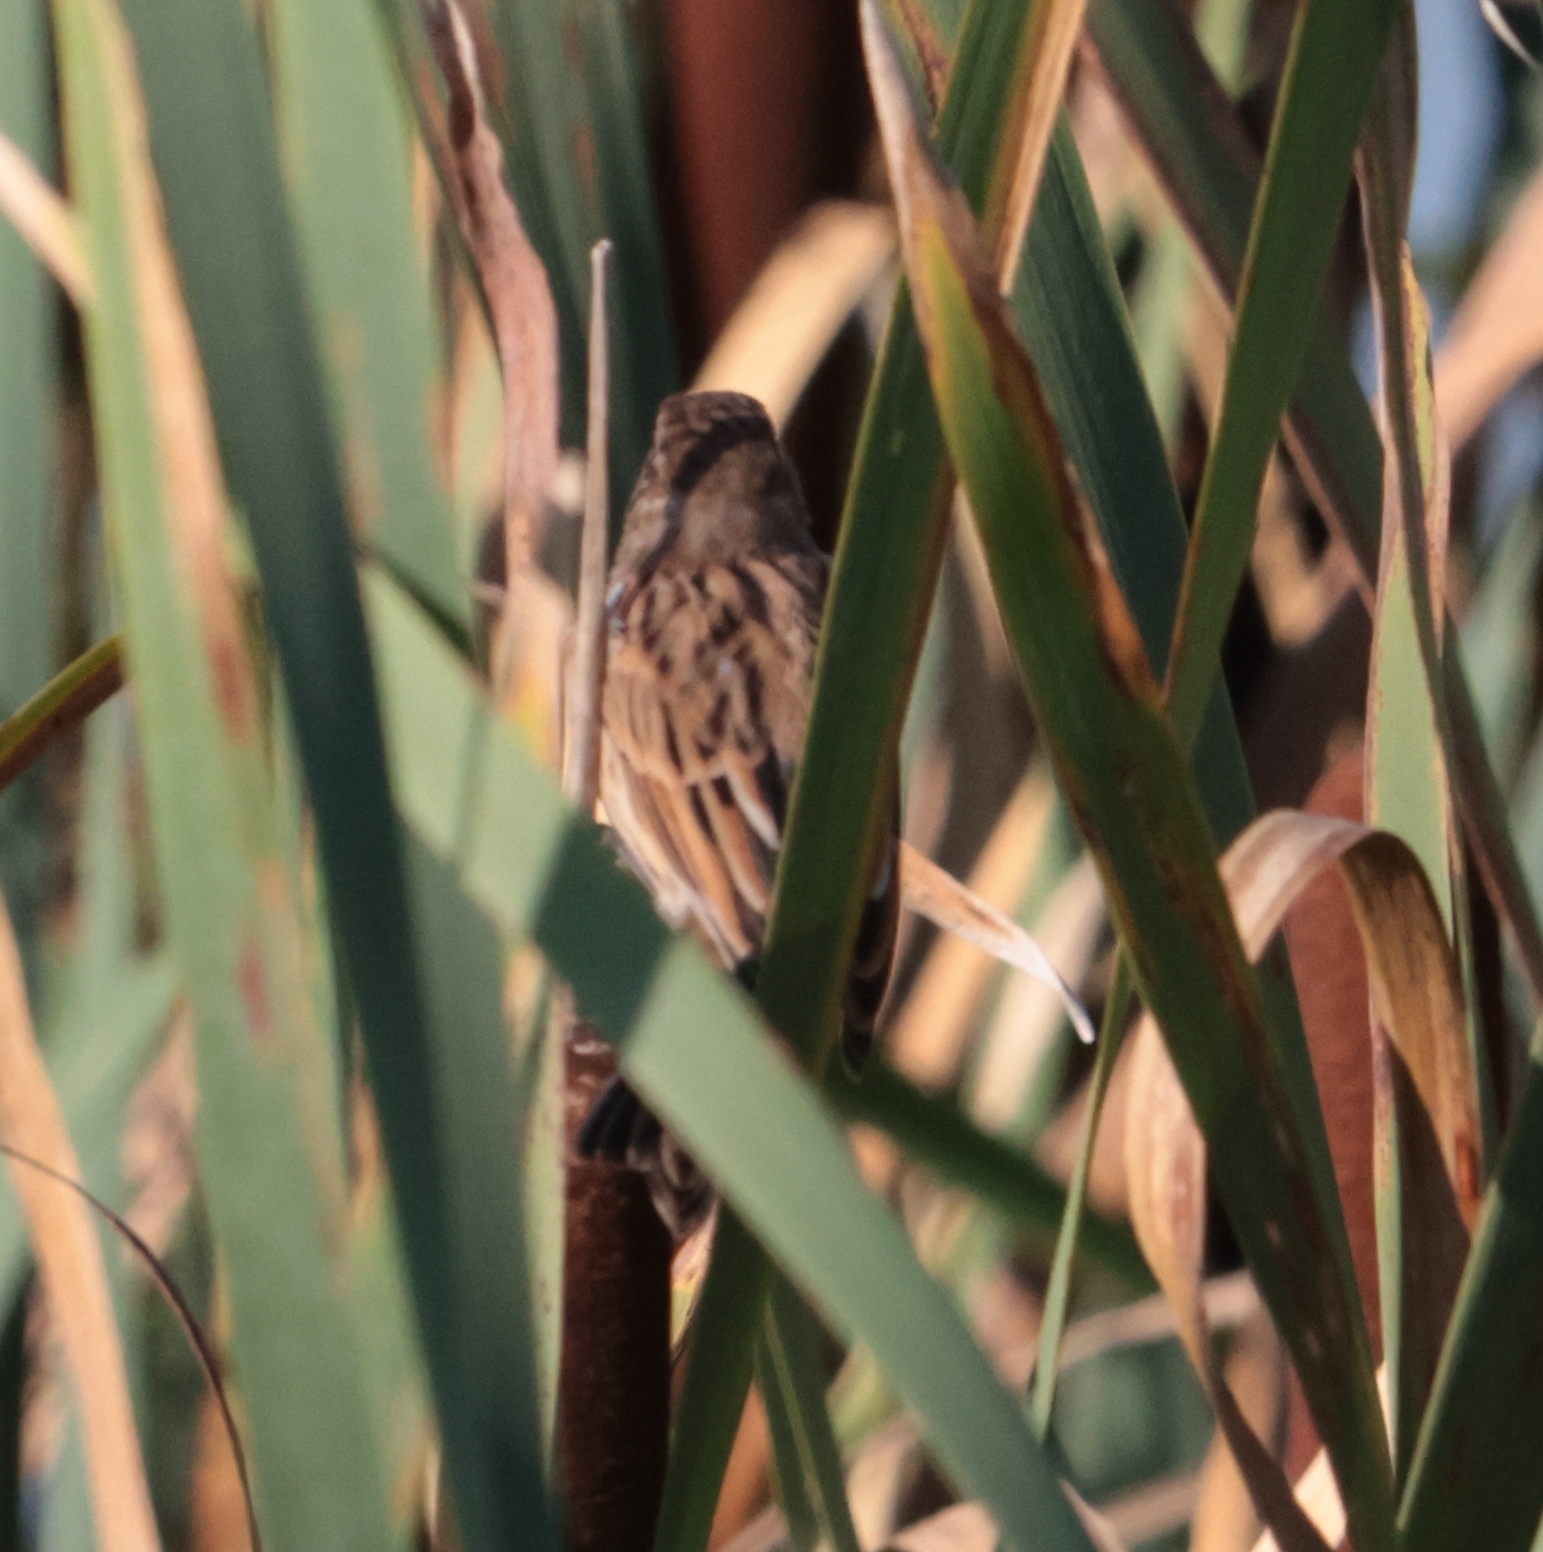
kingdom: Animalia
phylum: Chordata
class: Aves
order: Passeriformes
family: Emberizidae
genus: Emberiza
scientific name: Emberiza schoeniclus
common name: Reed bunting
